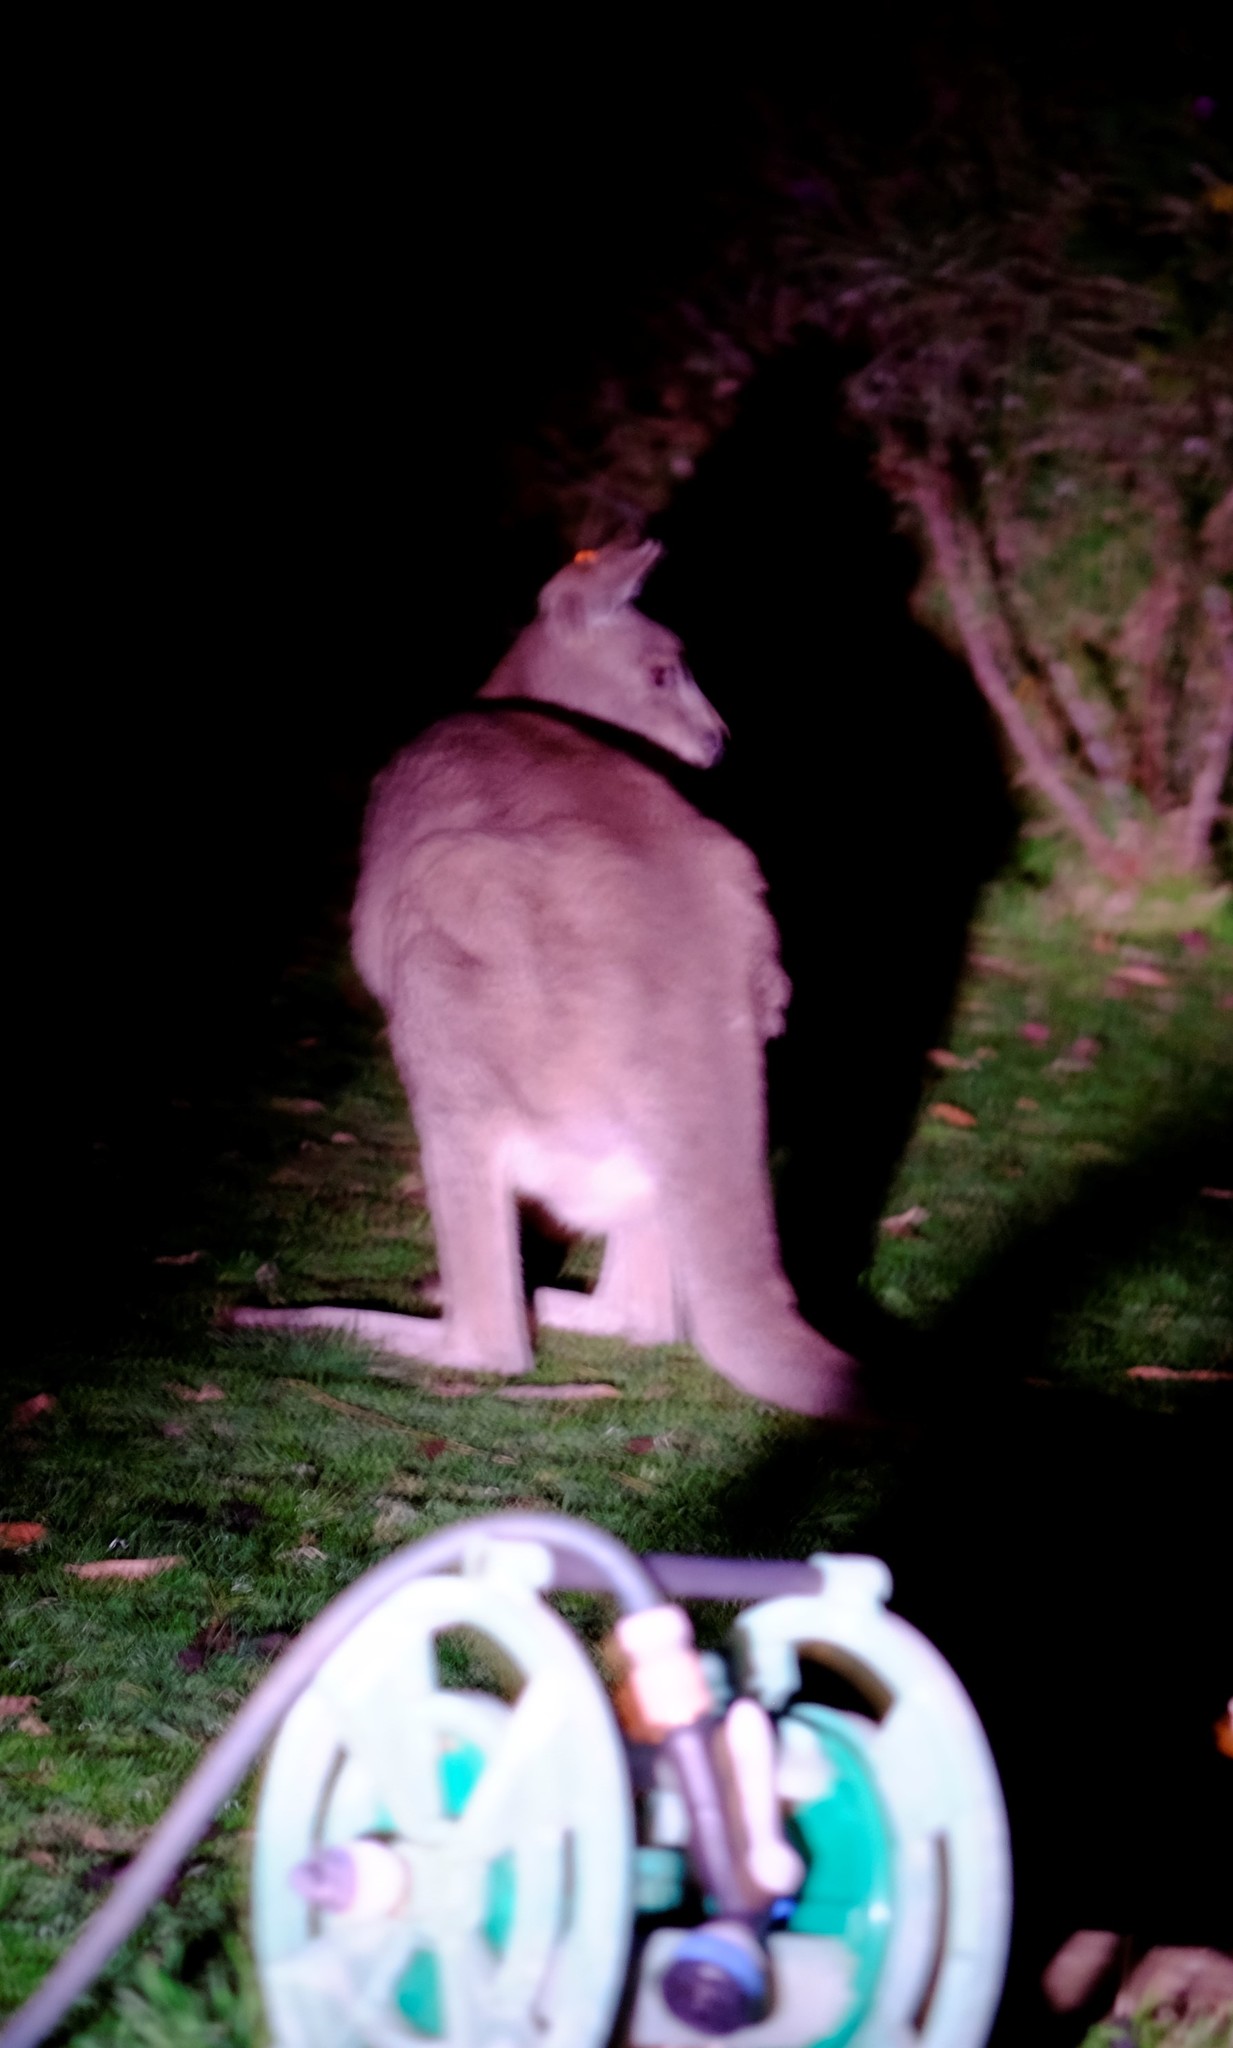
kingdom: Animalia
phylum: Chordata
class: Mammalia
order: Diprotodontia
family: Macropodidae
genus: Macropus
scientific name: Macropus giganteus
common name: Eastern grey kangaroo
